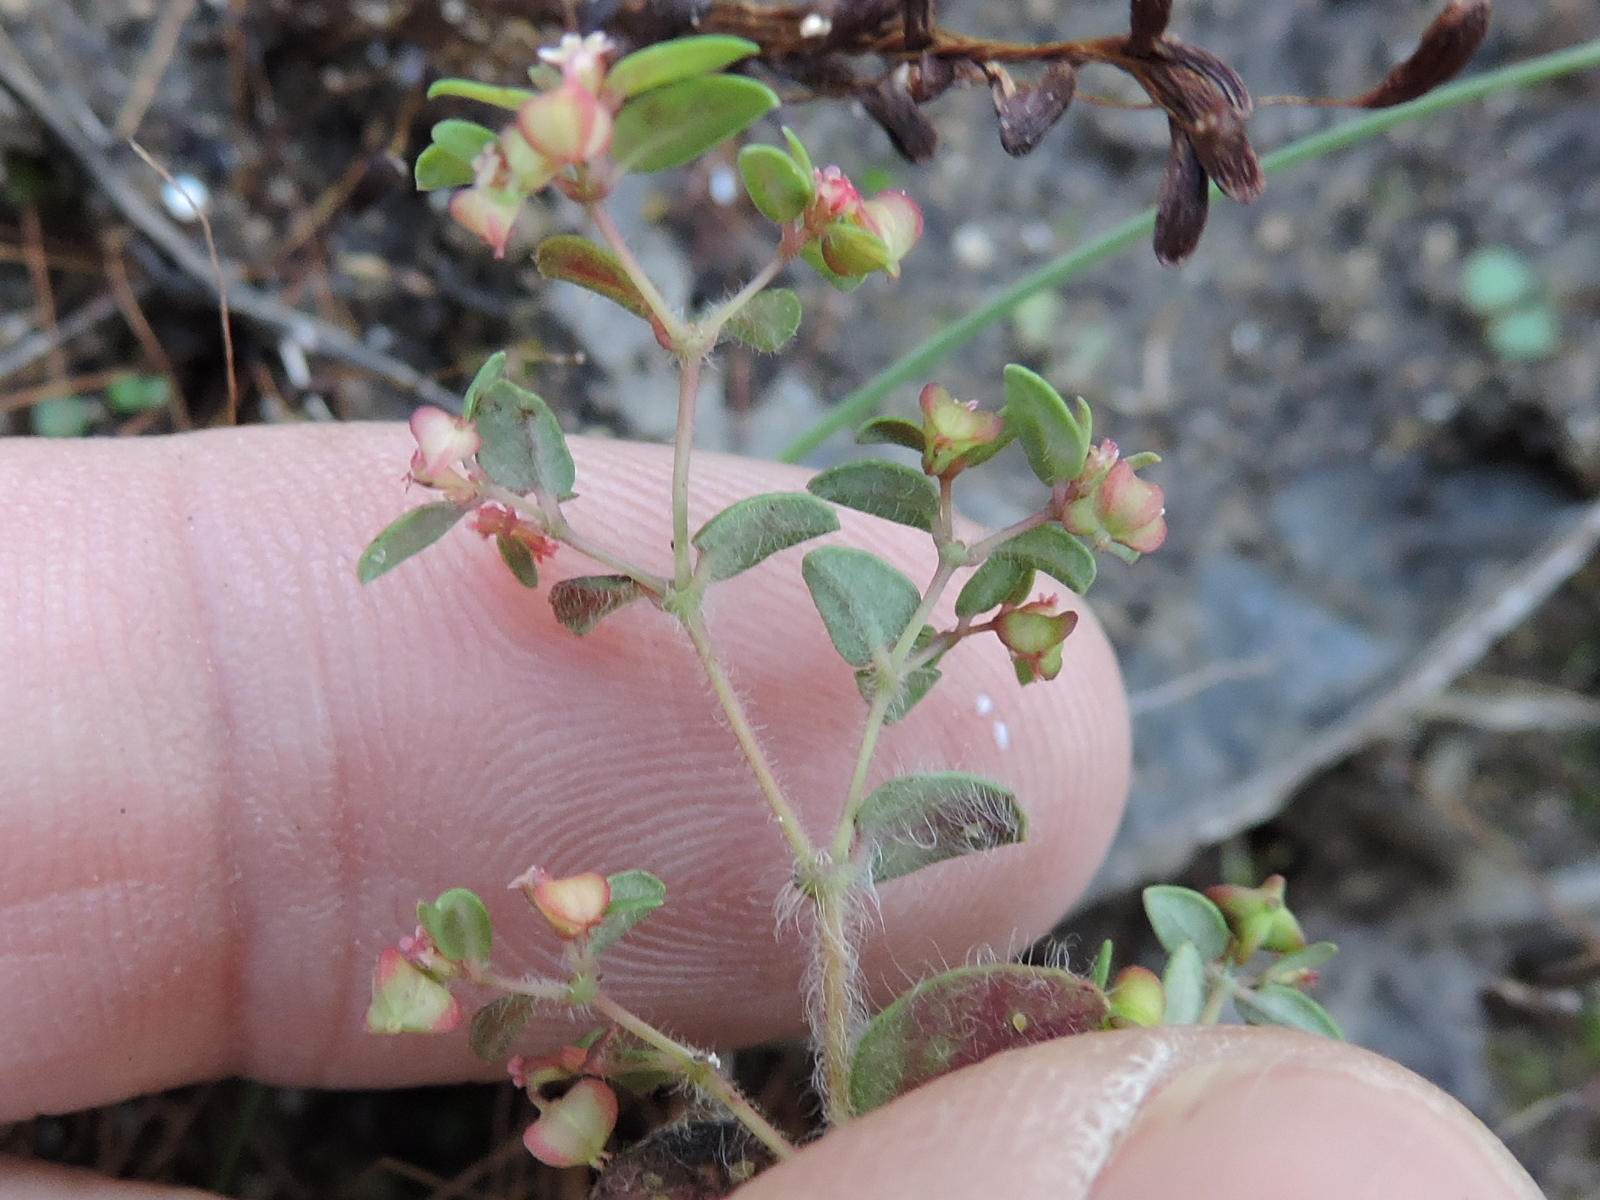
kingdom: Plantae
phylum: Tracheophyta
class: Magnoliopsida
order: Malpighiales
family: Euphorbiaceae
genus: Euphorbia
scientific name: Euphorbia villifera
